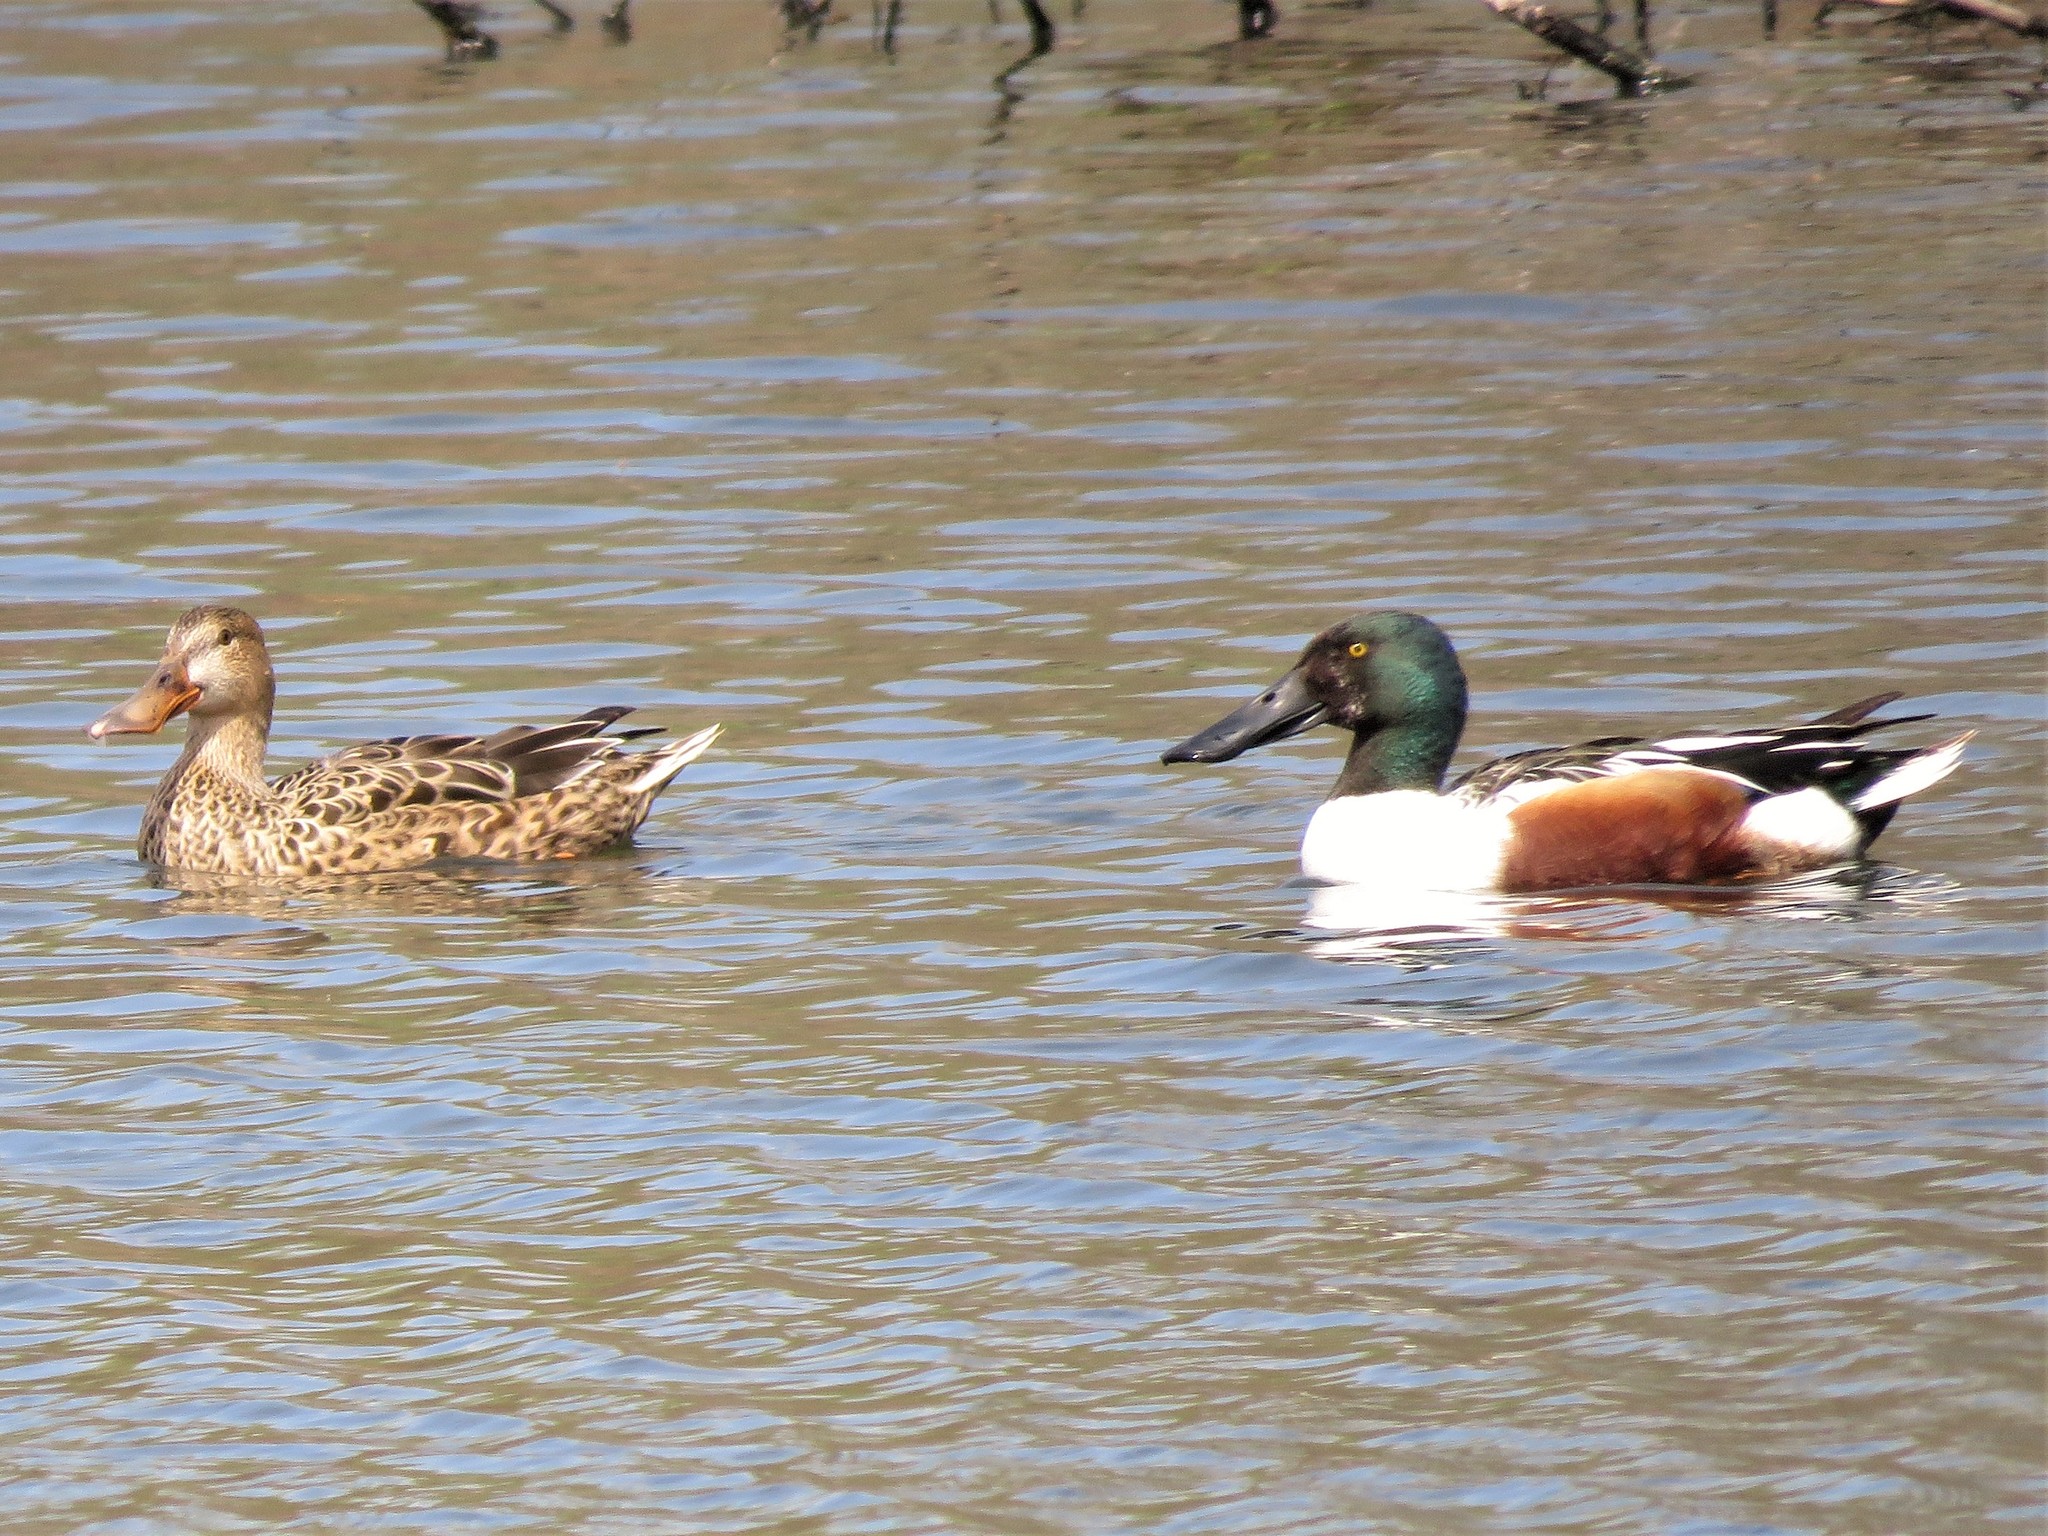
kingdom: Animalia
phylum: Chordata
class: Aves
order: Anseriformes
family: Anatidae
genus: Spatula
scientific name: Spatula clypeata
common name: Northern shoveler
